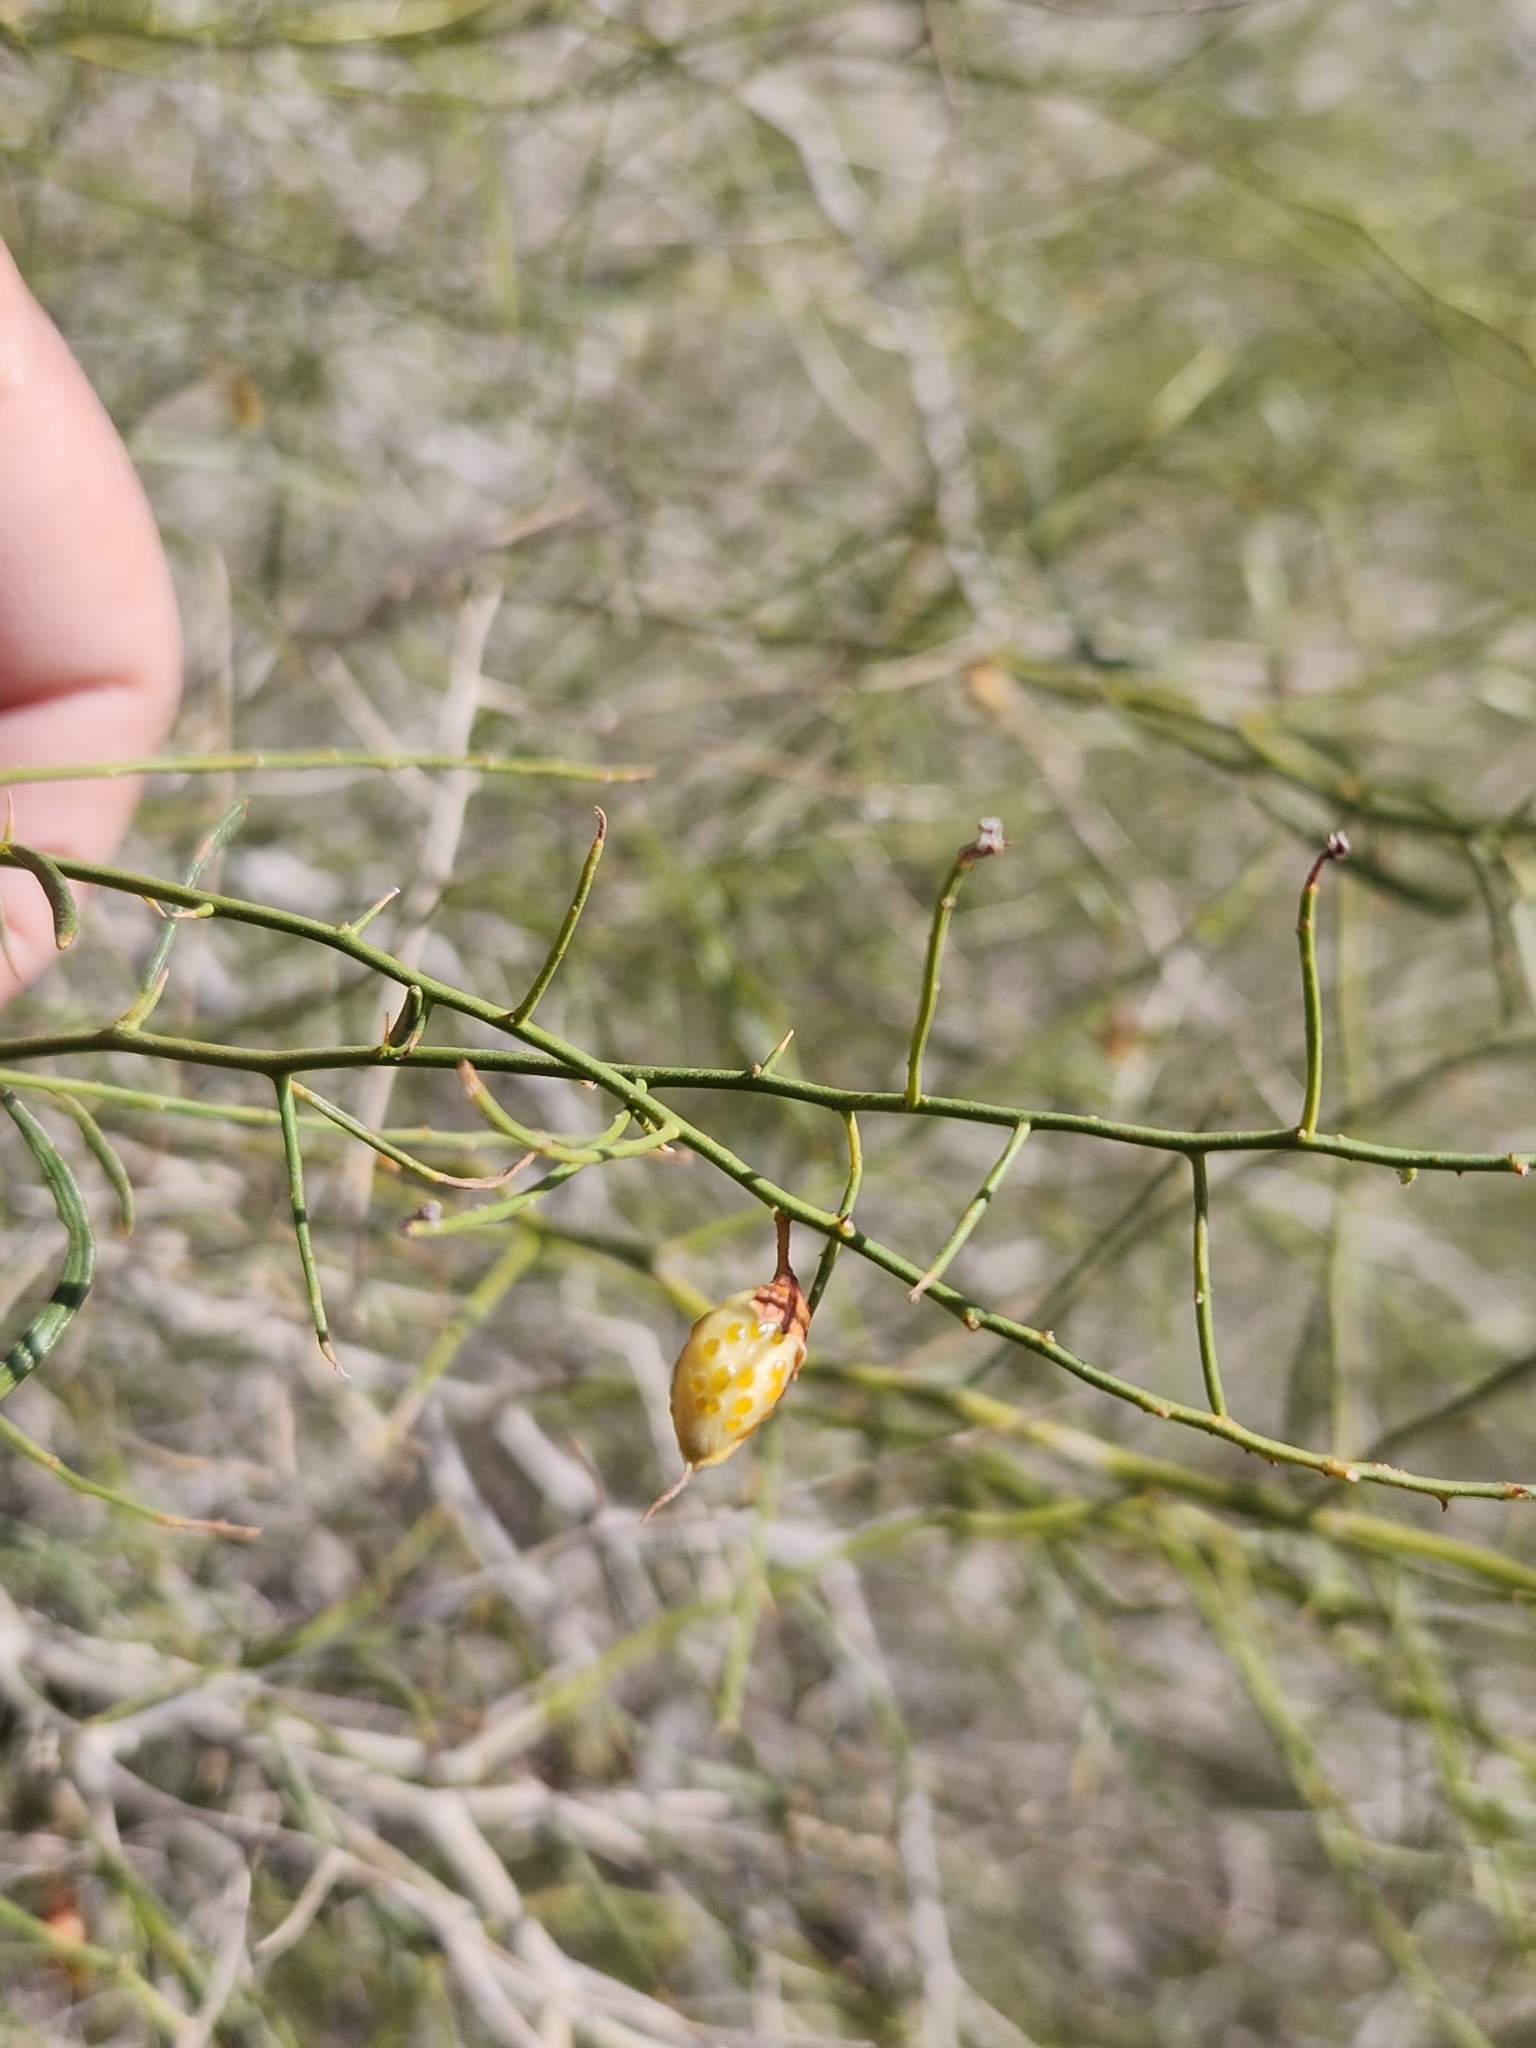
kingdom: Plantae
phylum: Tracheophyta
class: Magnoliopsida
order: Fabales
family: Fabaceae
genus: Psorothamnus
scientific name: Psorothamnus schottii
